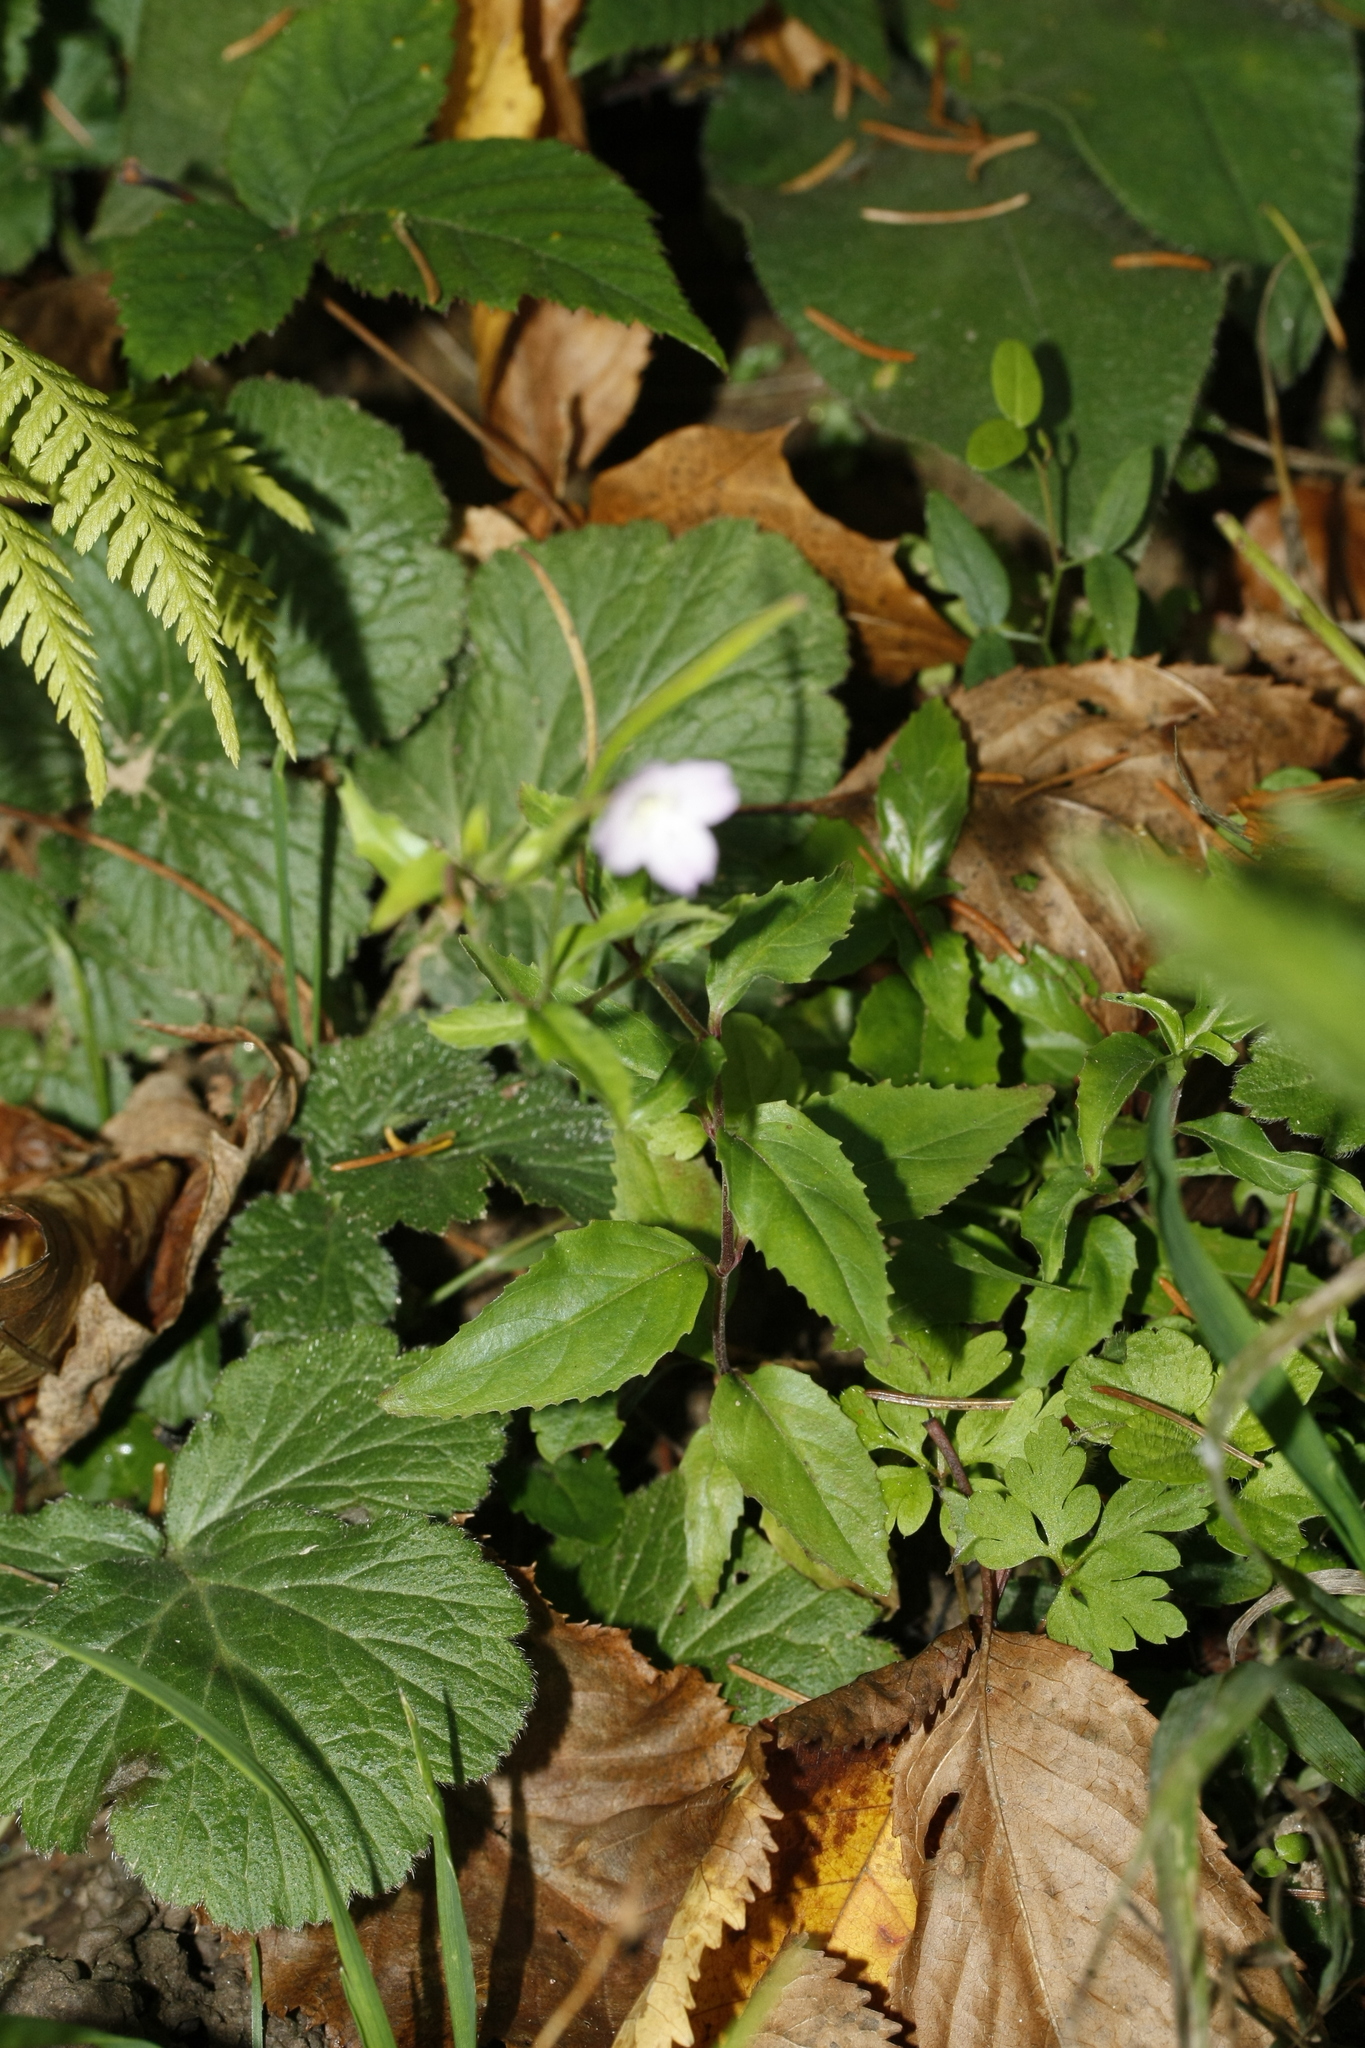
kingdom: Plantae
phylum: Tracheophyta
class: Magnoliopsida
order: Myrtales
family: Onagraceae
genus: Epilobium
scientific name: Epilobium montanum
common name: Broad-leaved willowherb
